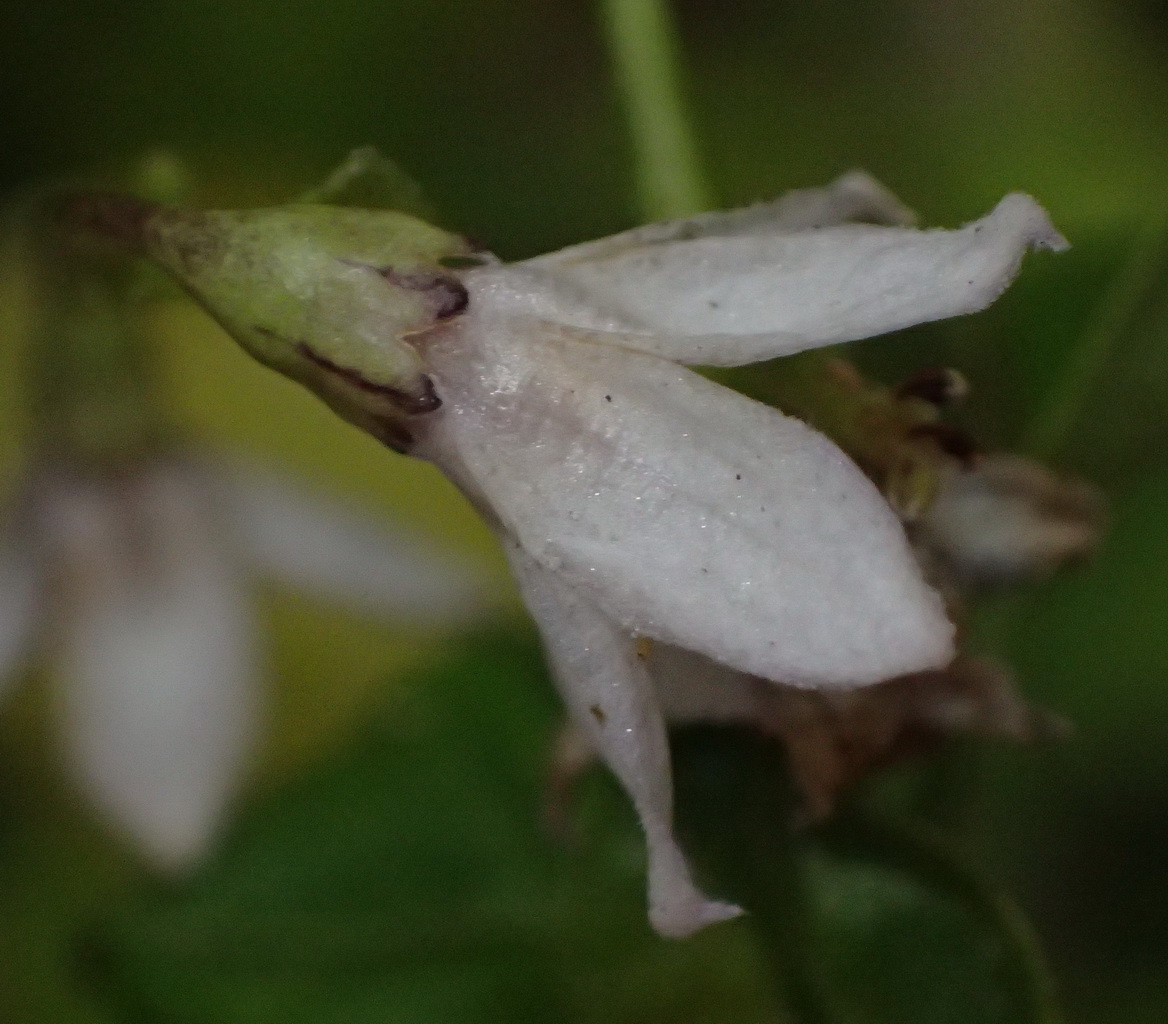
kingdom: Plantae
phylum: Tracheophyta
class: Magnoliopsida
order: Solanales
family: Solanaceae
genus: Solanum
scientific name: Solanum africanum
